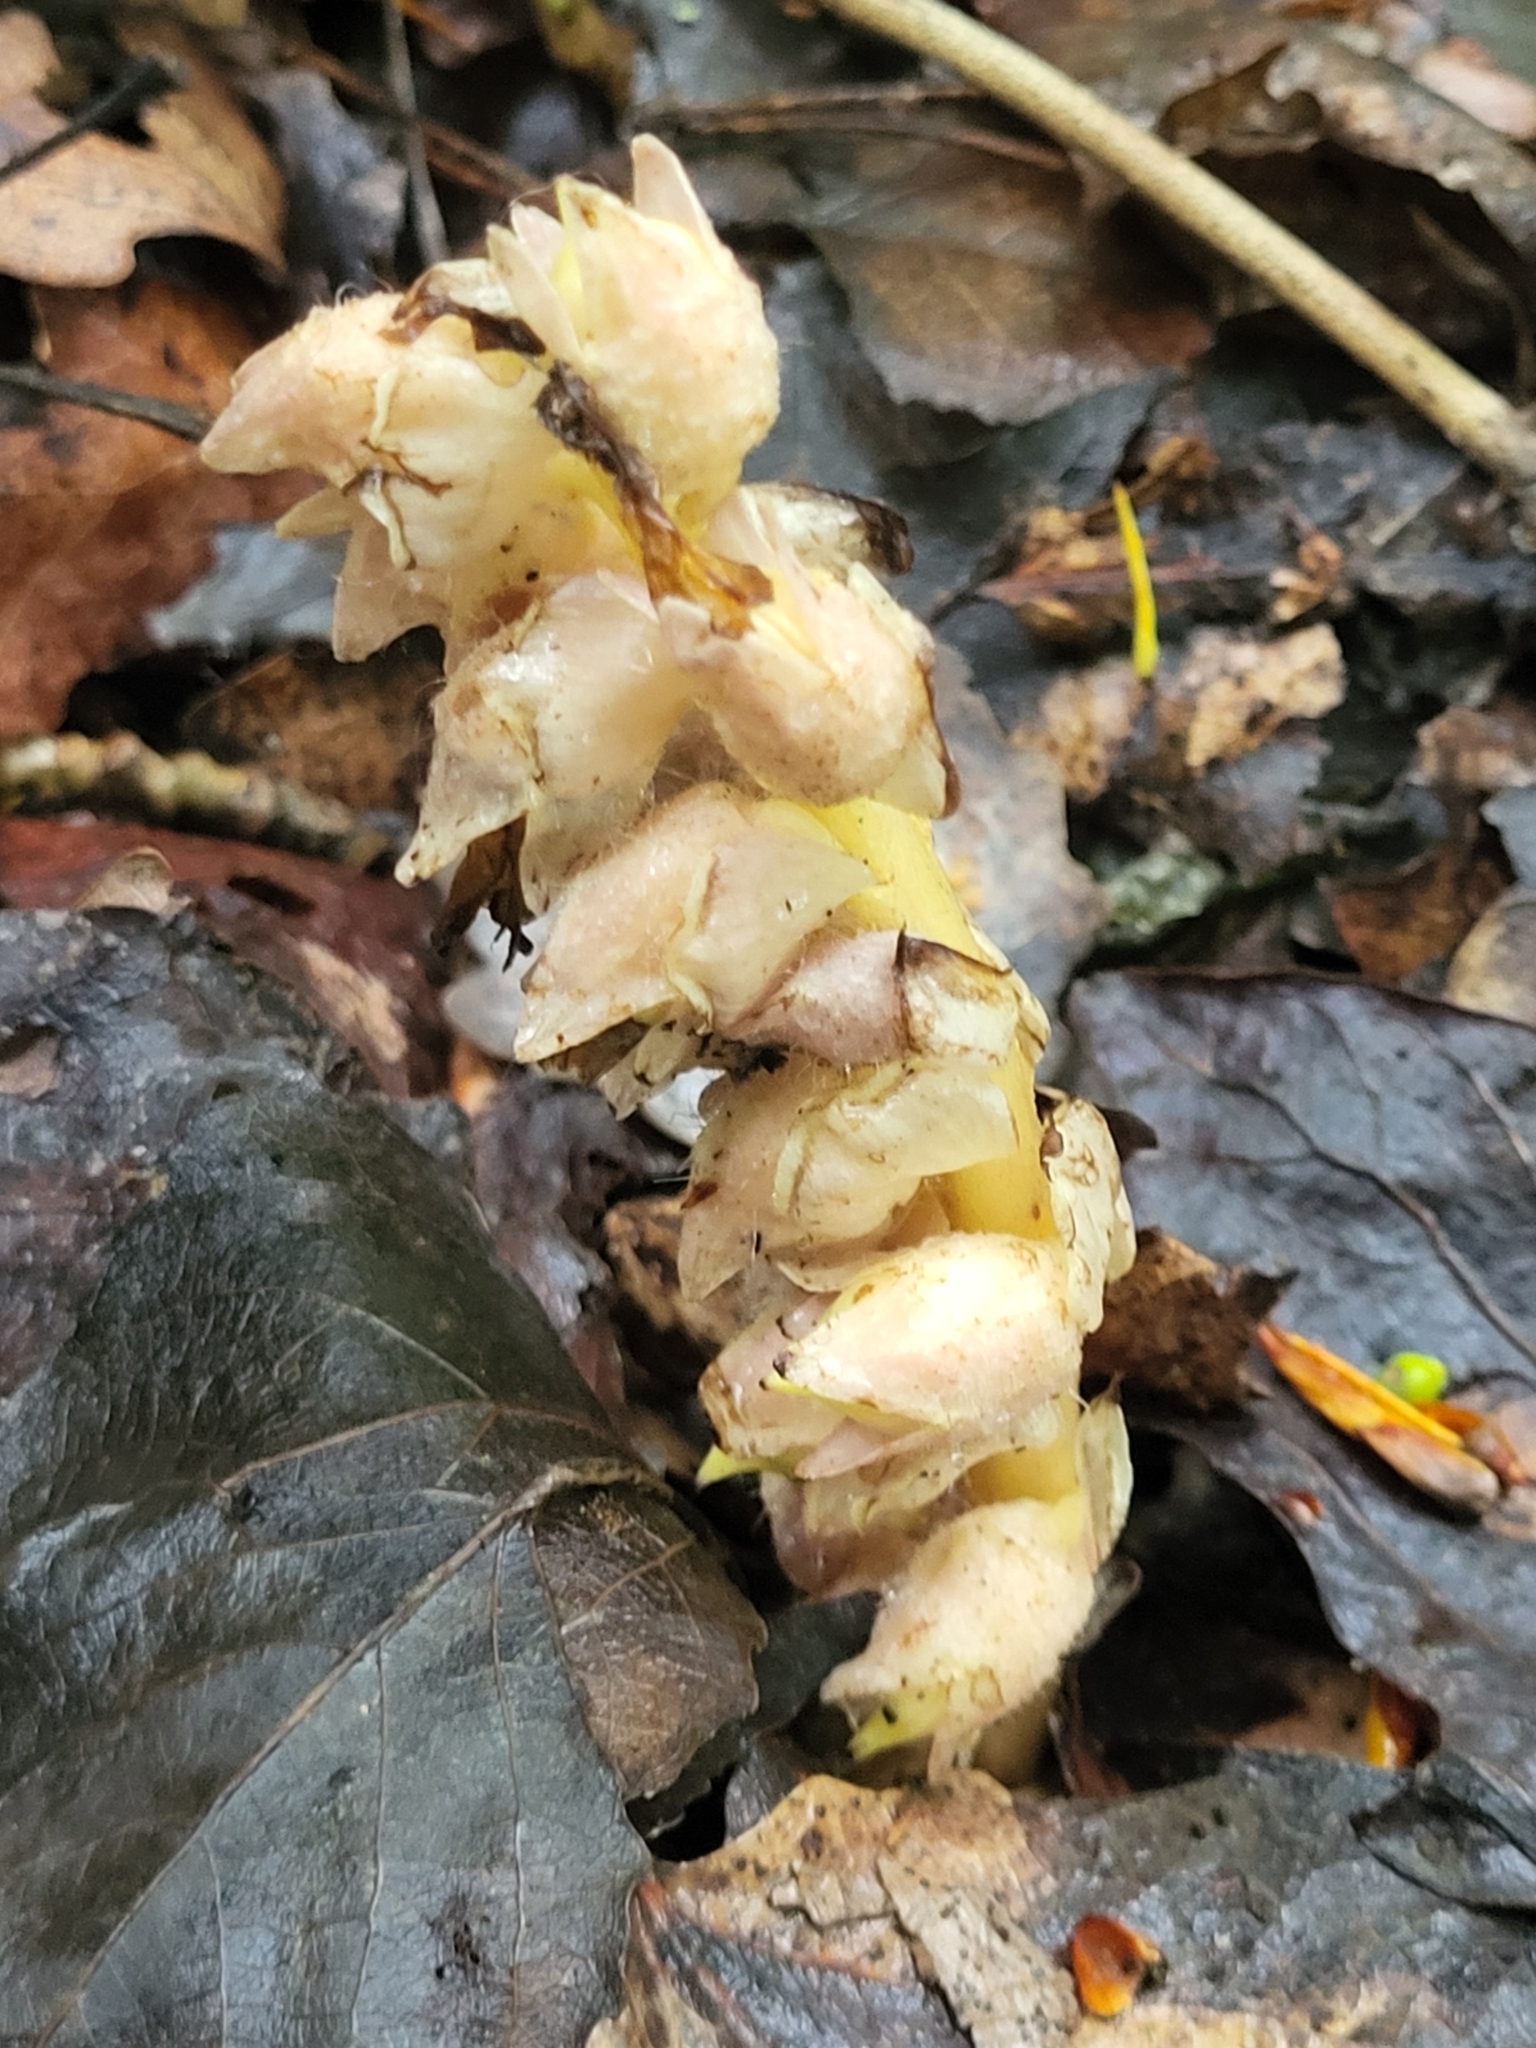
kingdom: Plantae
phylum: Tracheophyta
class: Magnoliopsida
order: Lamiales
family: Orobanchaceae
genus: Lathraea
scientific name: Lathraea squamaria
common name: Toothwort
